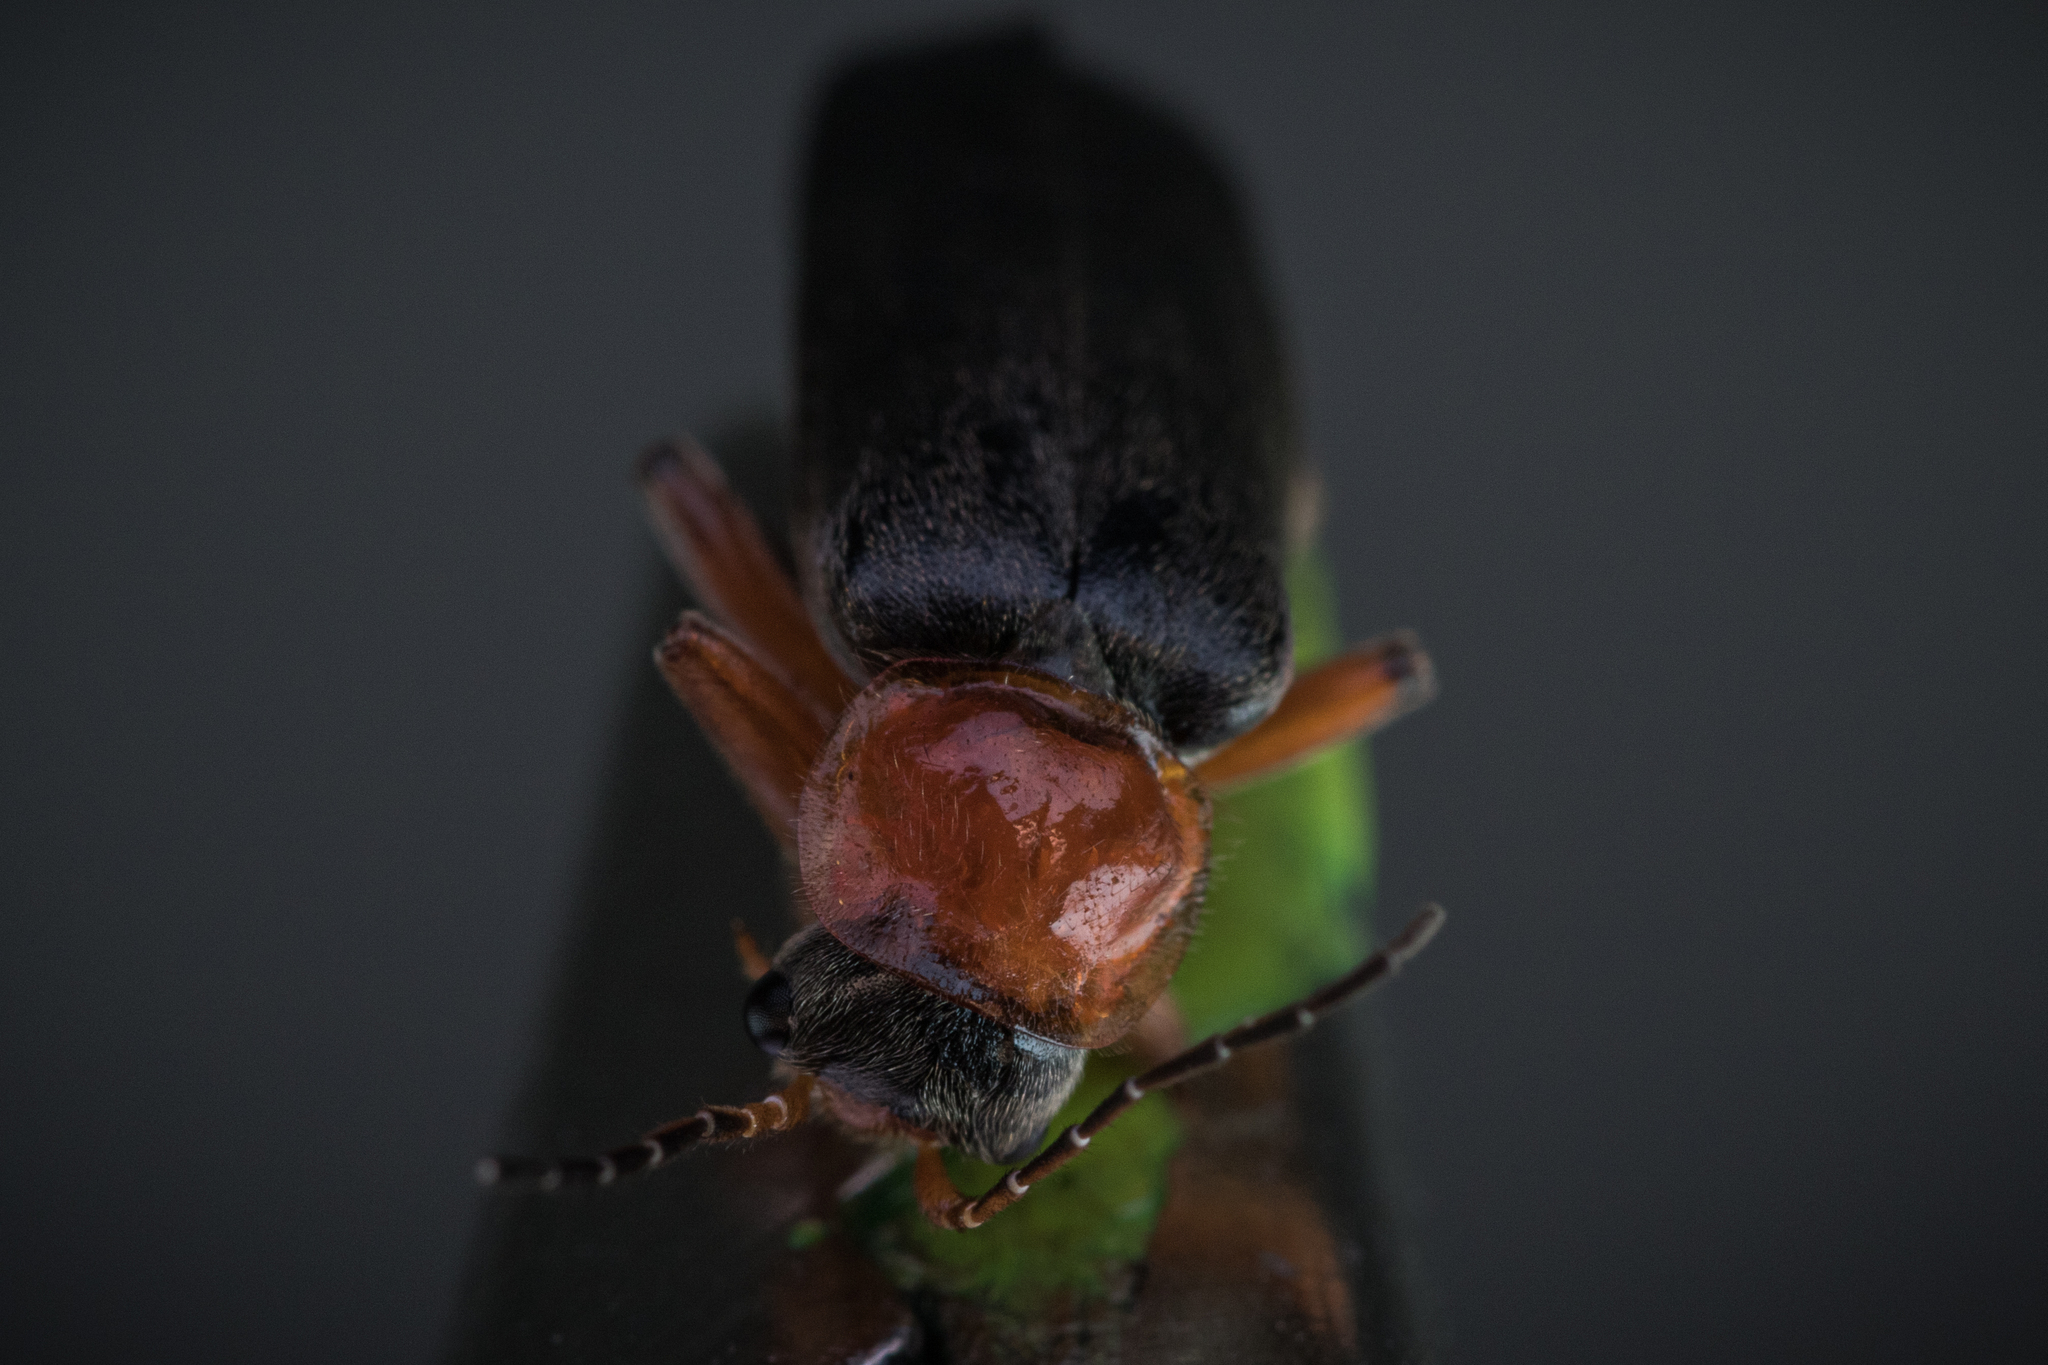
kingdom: Animalia
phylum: Arthropoda
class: Insecta
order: Coleoptera
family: Cantharidae
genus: Cantharis
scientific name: Cantharis pellucida
